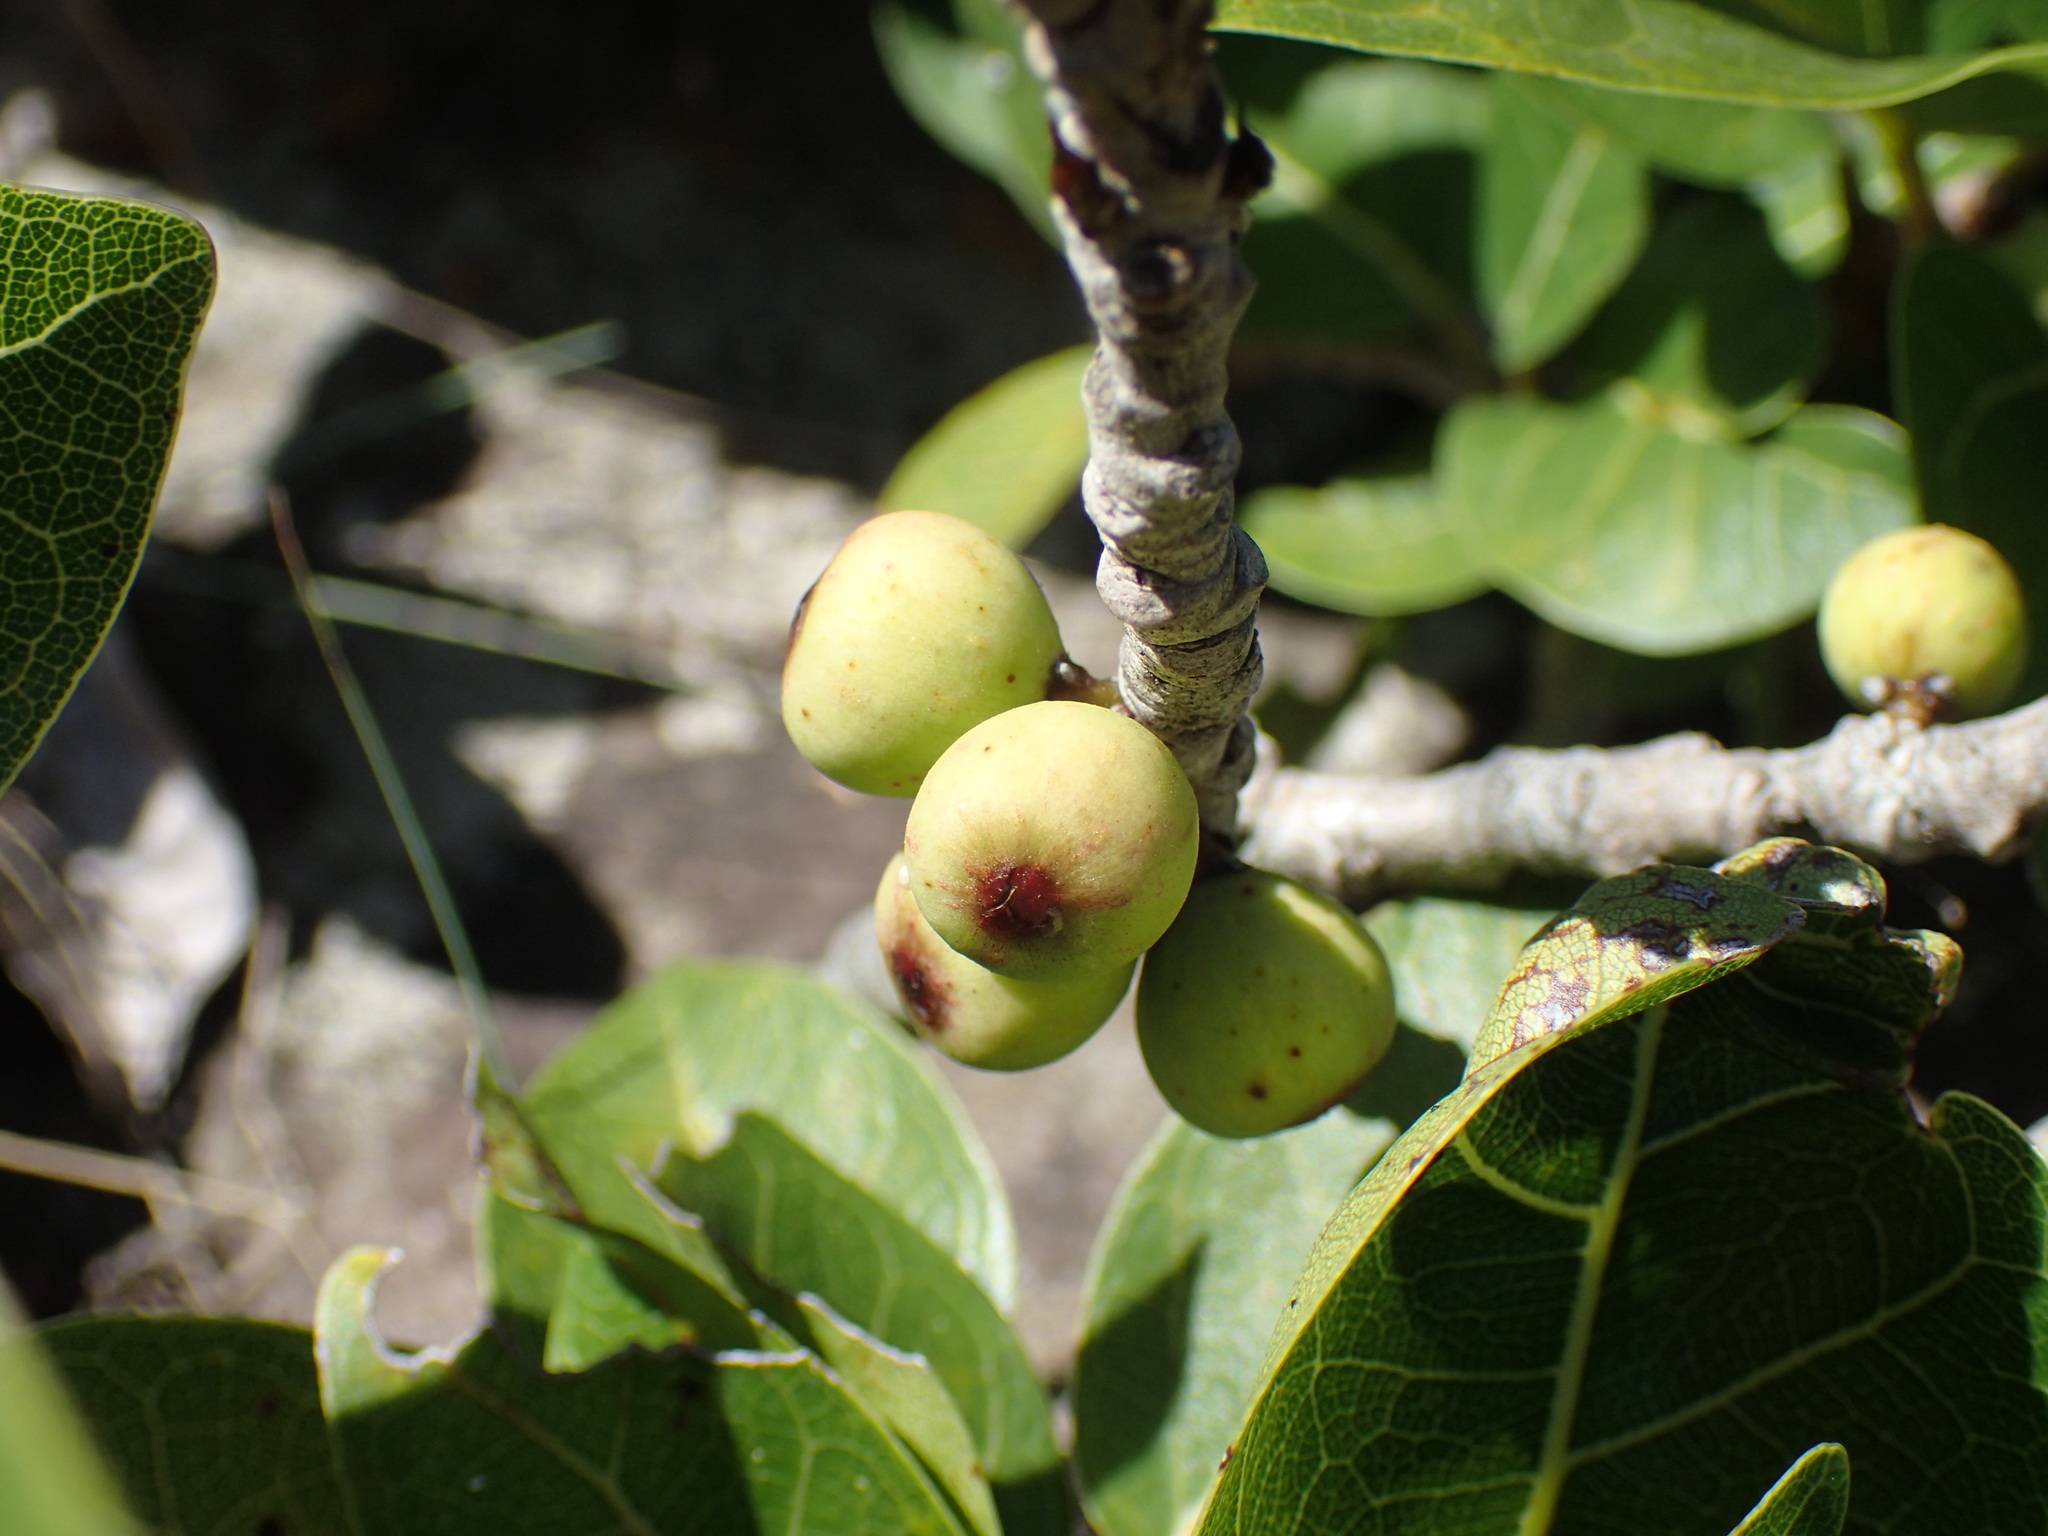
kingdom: Plantae
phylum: Tracheophyta
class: Magnoliopsida
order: Rosales
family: Moraceae
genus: Ficus
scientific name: Ficus ingens
